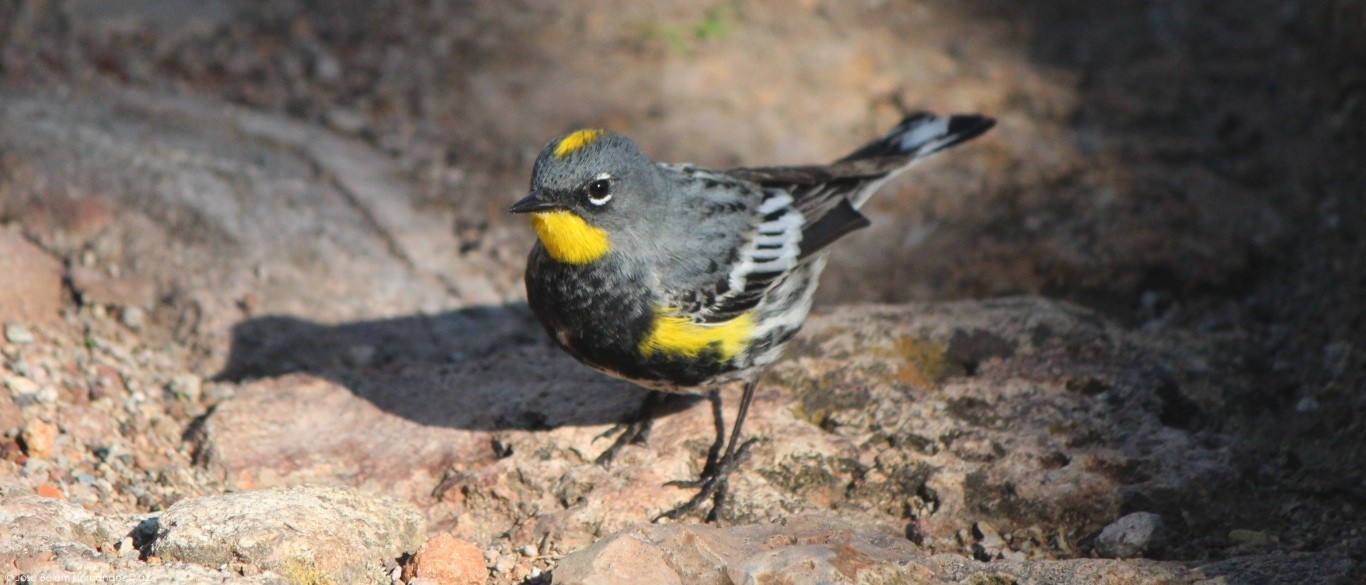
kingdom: Animalia
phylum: Chordata
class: Aves
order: Passeriformes
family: Parulidae
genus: Setophaga
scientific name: Setophaga auduboni
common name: Audubon's warbler
